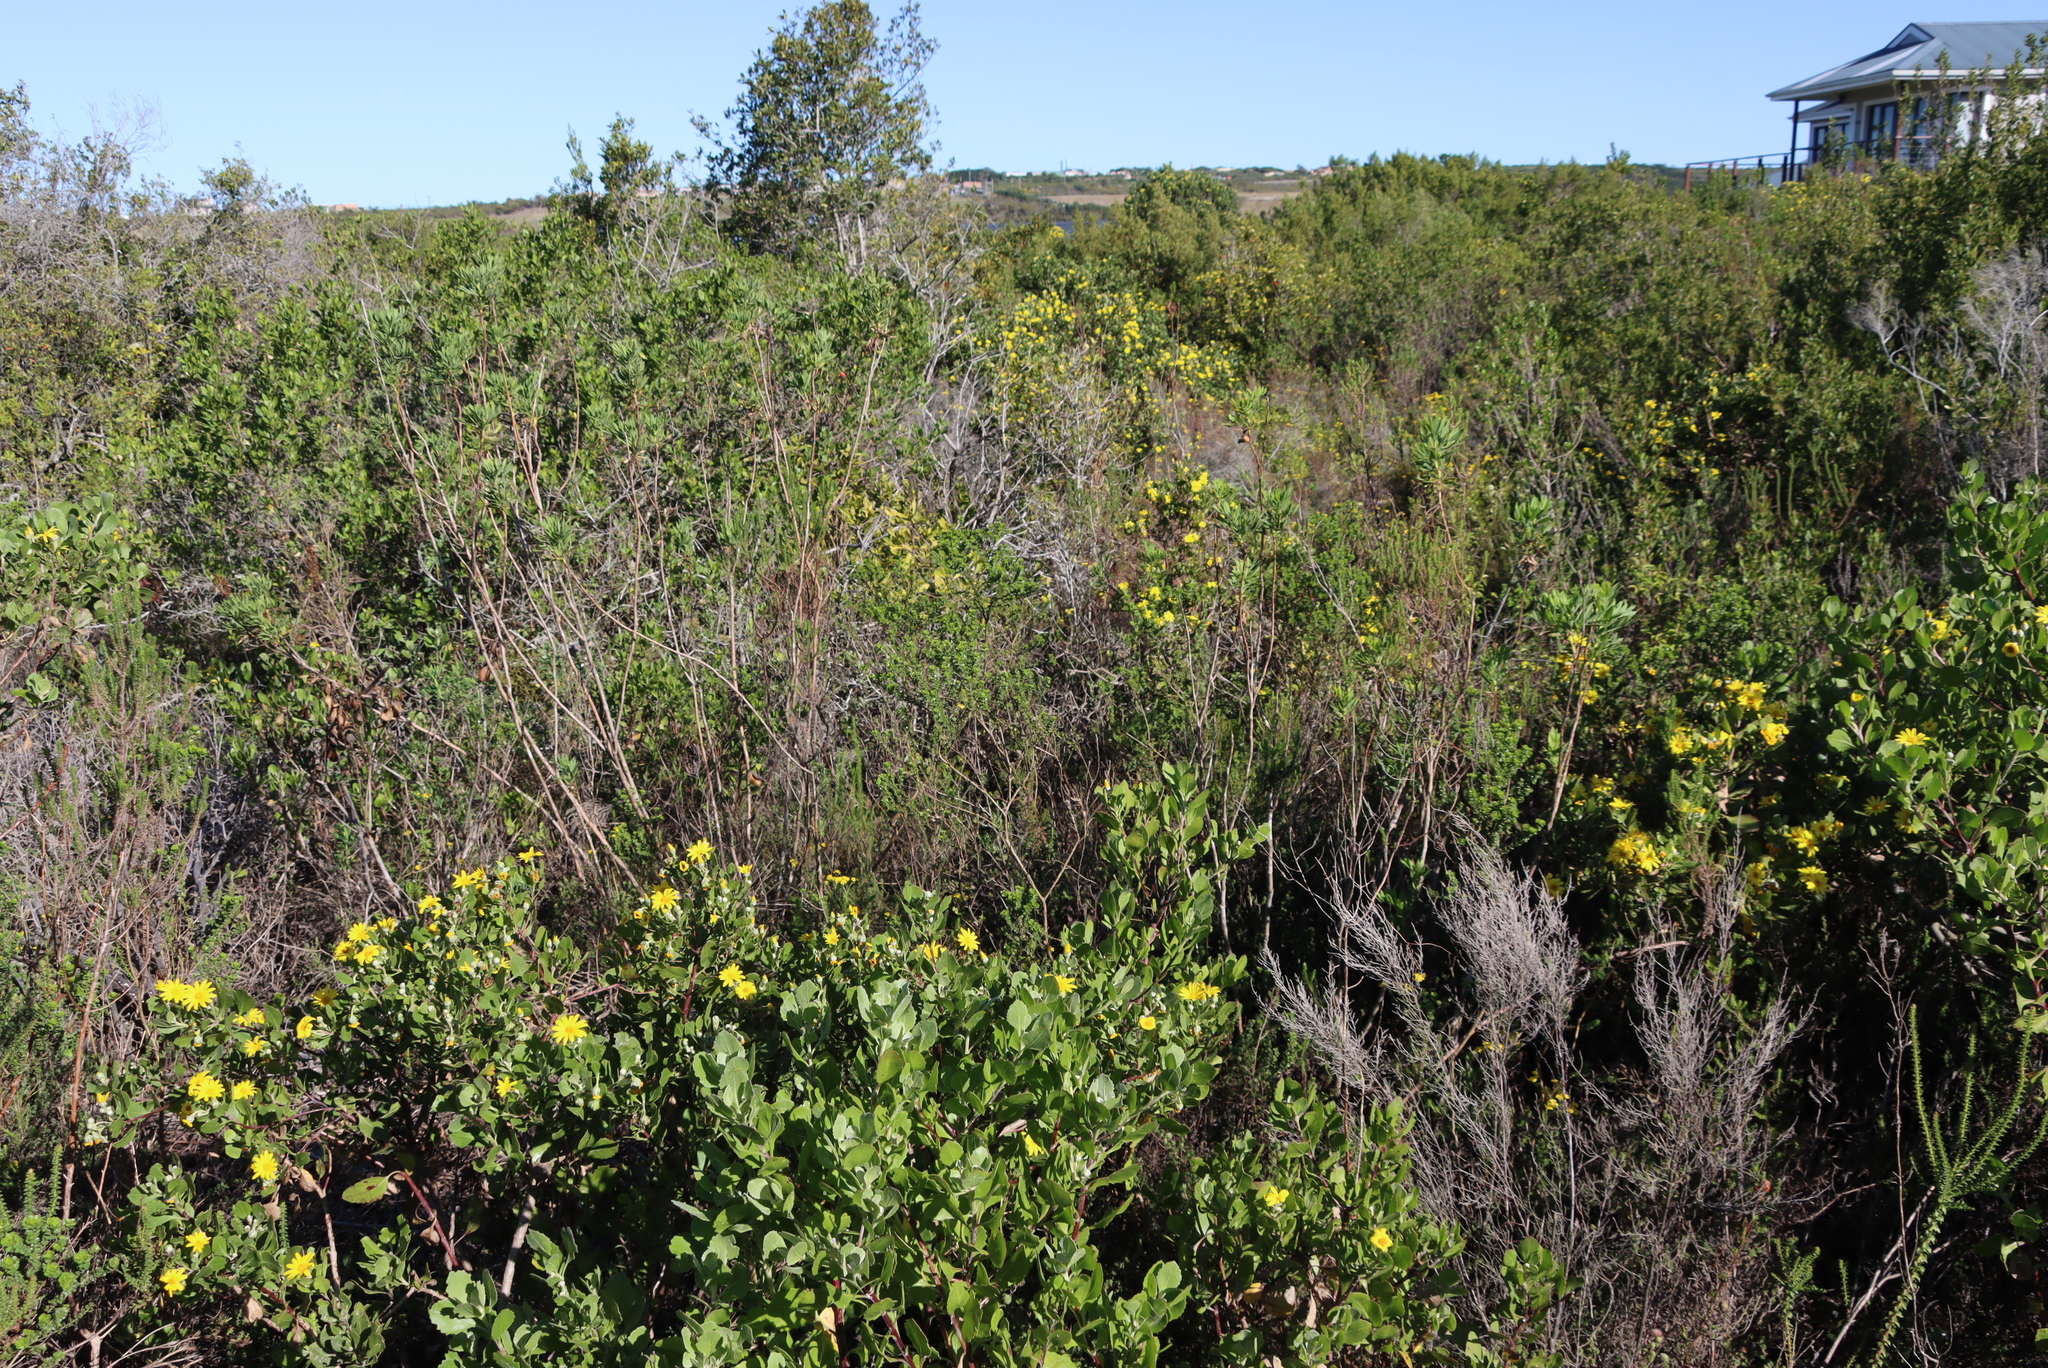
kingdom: Plantae
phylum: Tracheophyta
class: Magnoliopsida
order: Apiales
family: Apiaceae
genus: Notobubon
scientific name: Notobubon laevigatum
